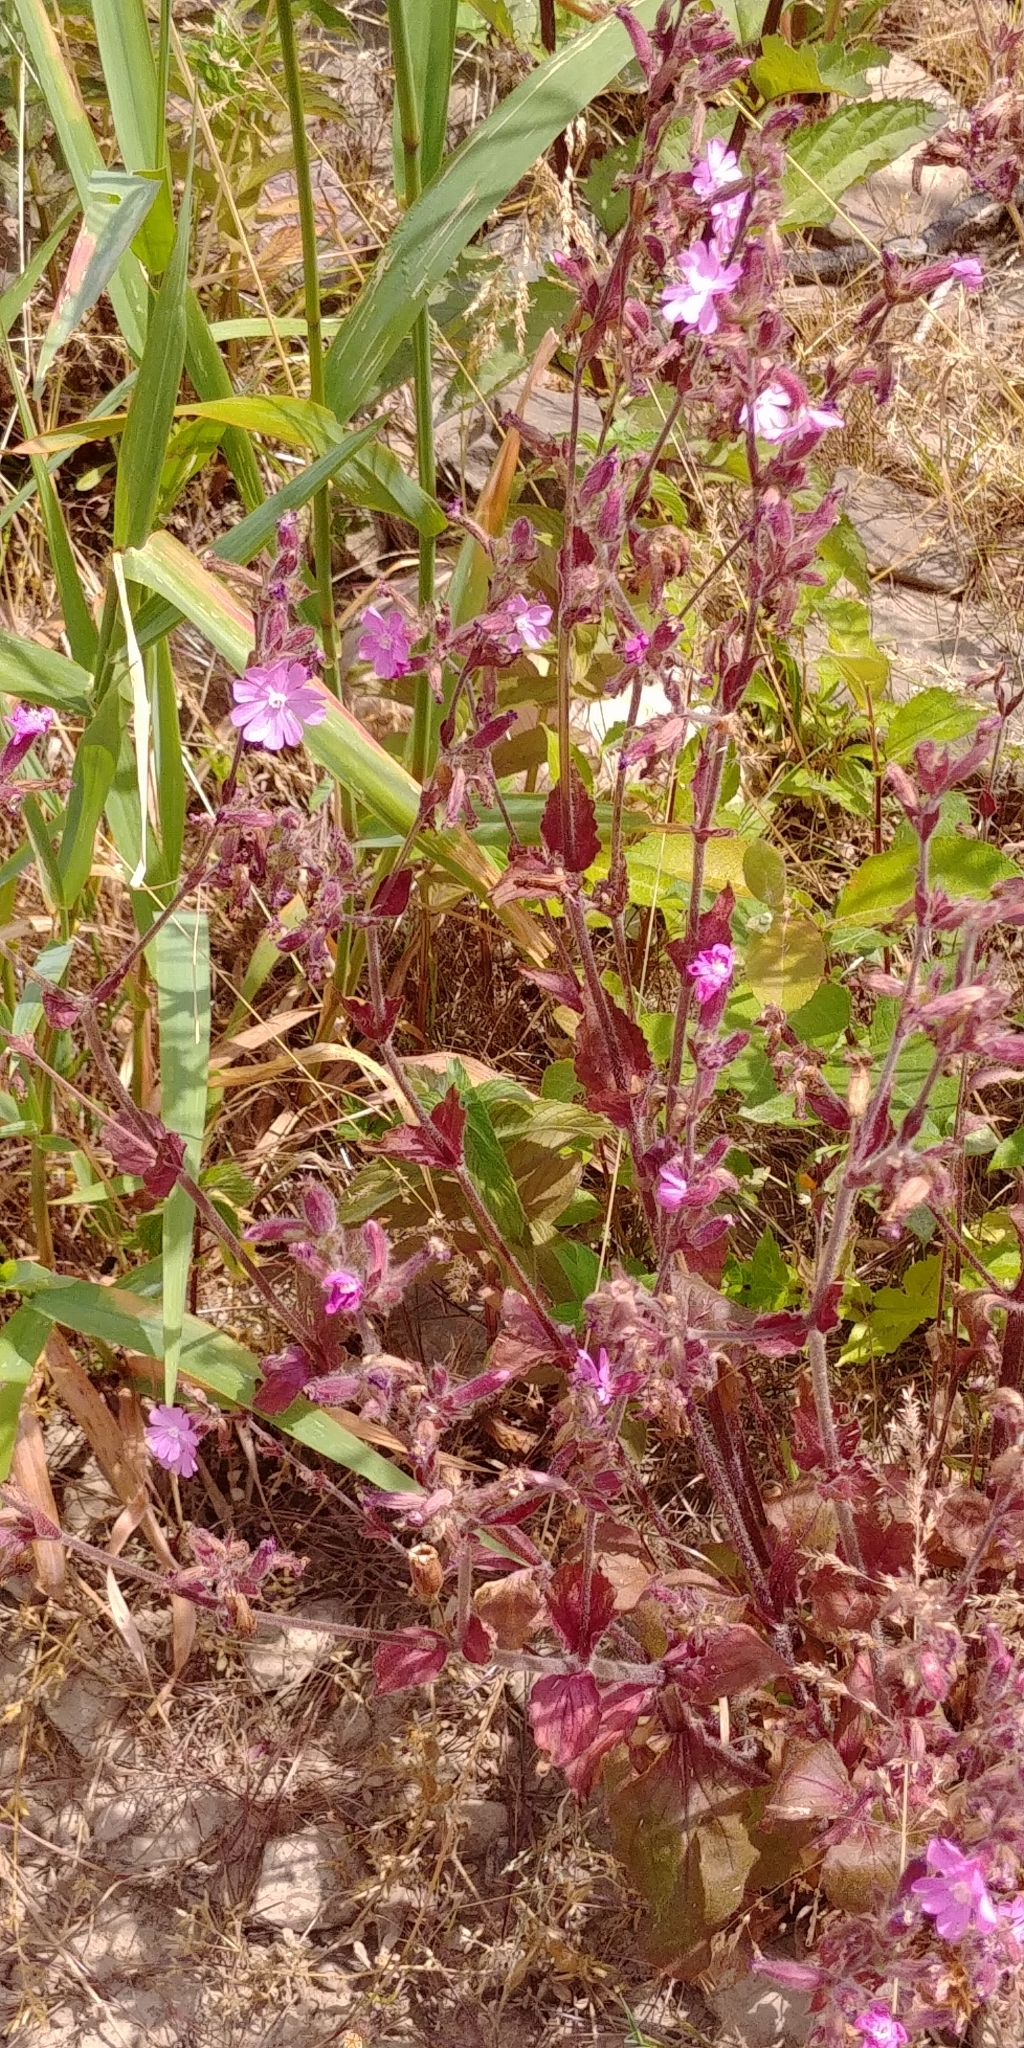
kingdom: Plantae
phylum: Tracheophyta
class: Magnoliopsida
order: Caryophyllales
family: Caryophyllaceae
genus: Silene
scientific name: Silene dioica
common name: Red campion
